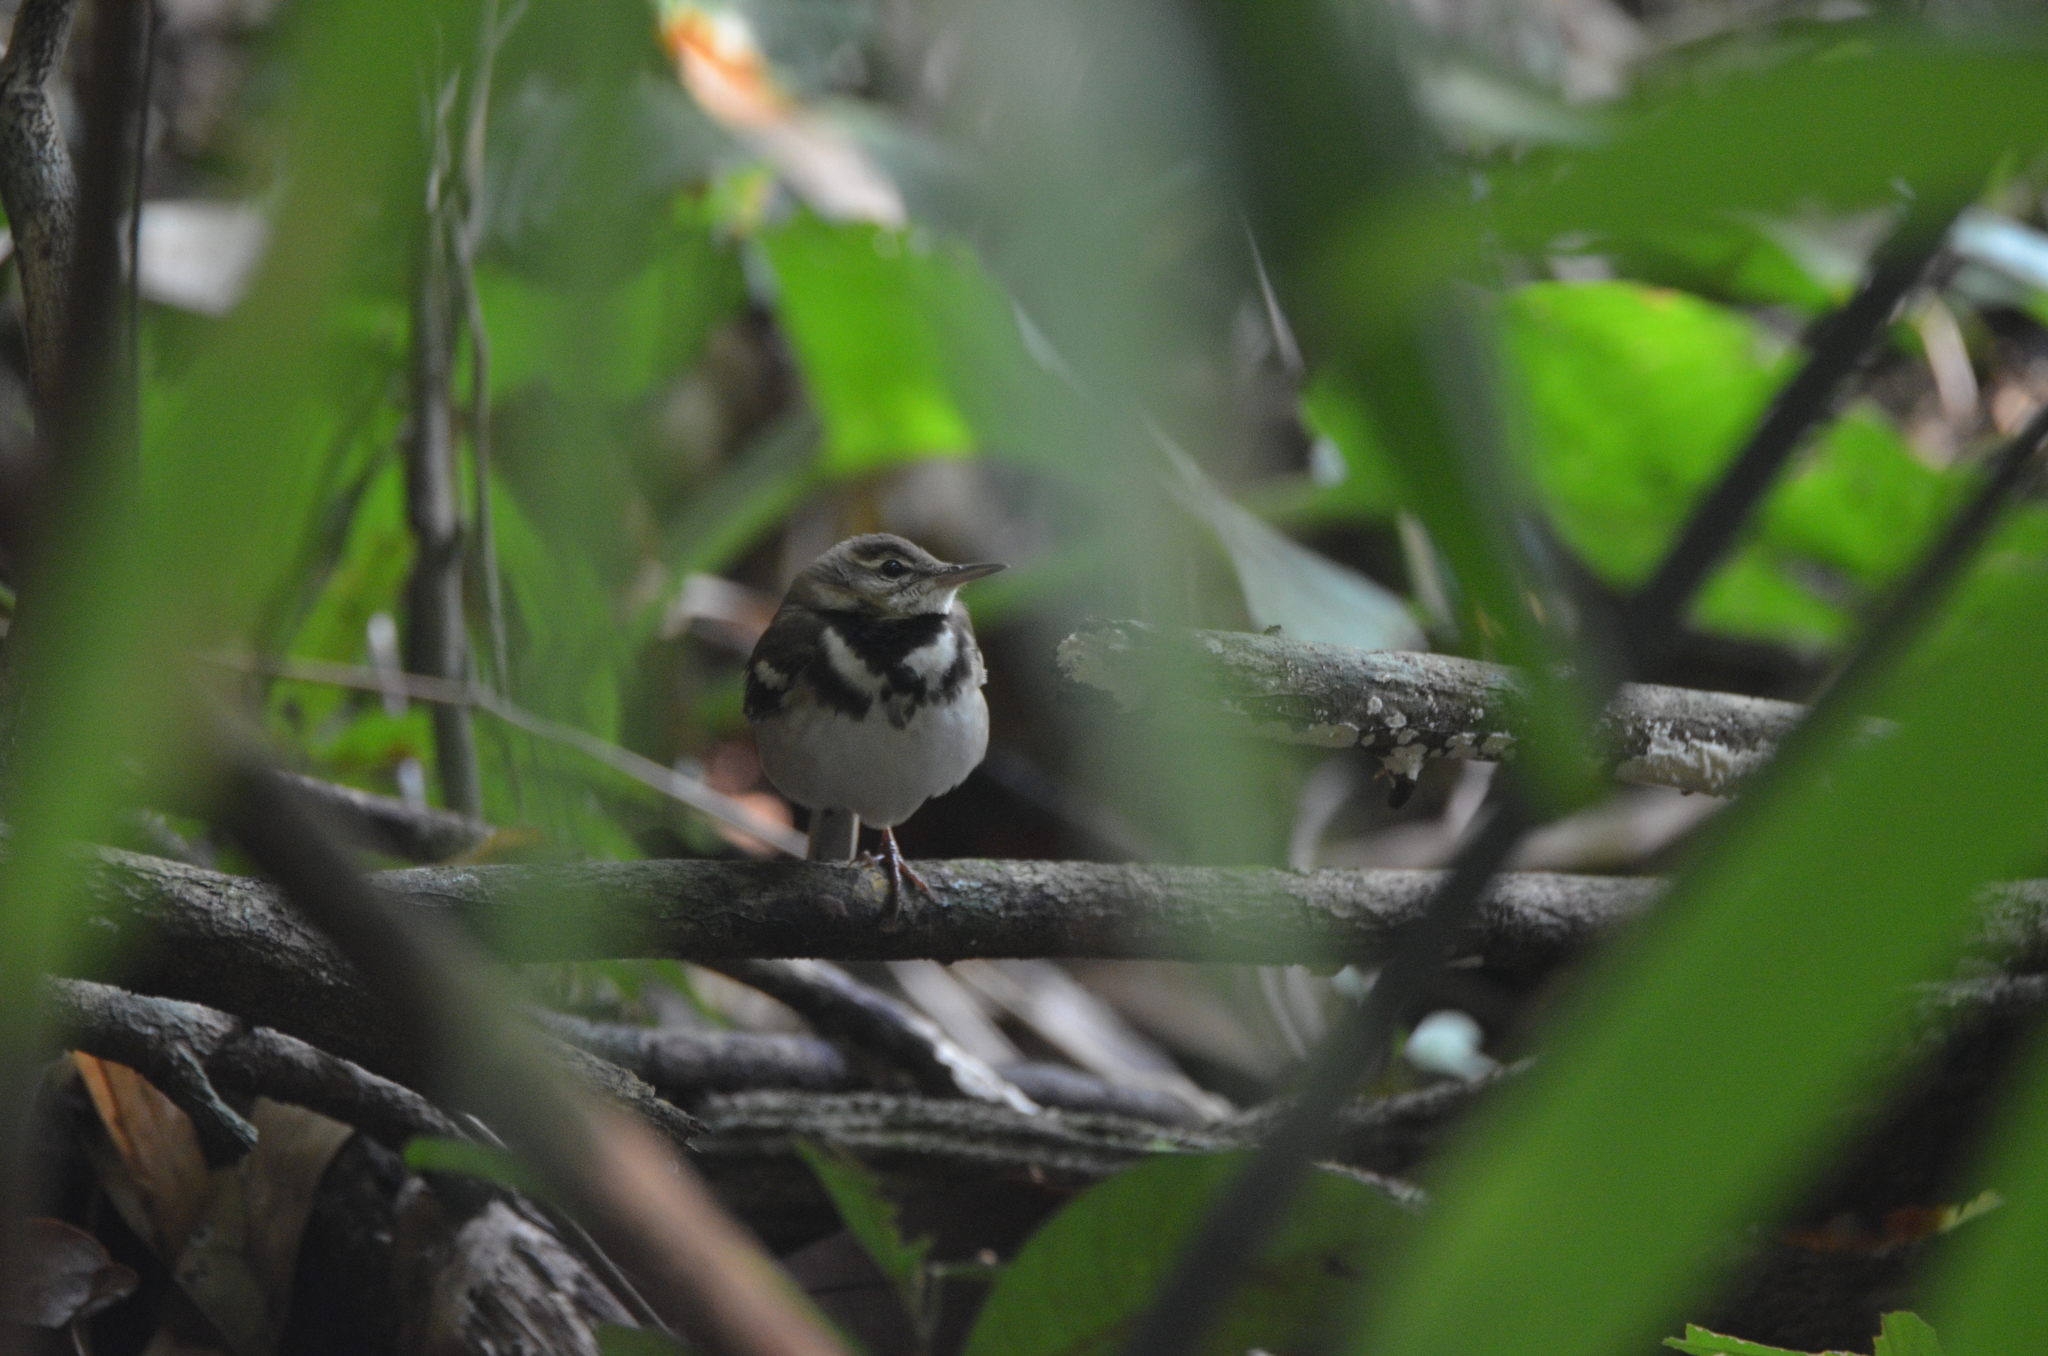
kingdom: Animalia
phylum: Chordata
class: Aves
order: Passeriformes
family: Motacillidae
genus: Dendronanthus
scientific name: Dendronanthus indicus
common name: Forest wagtail
